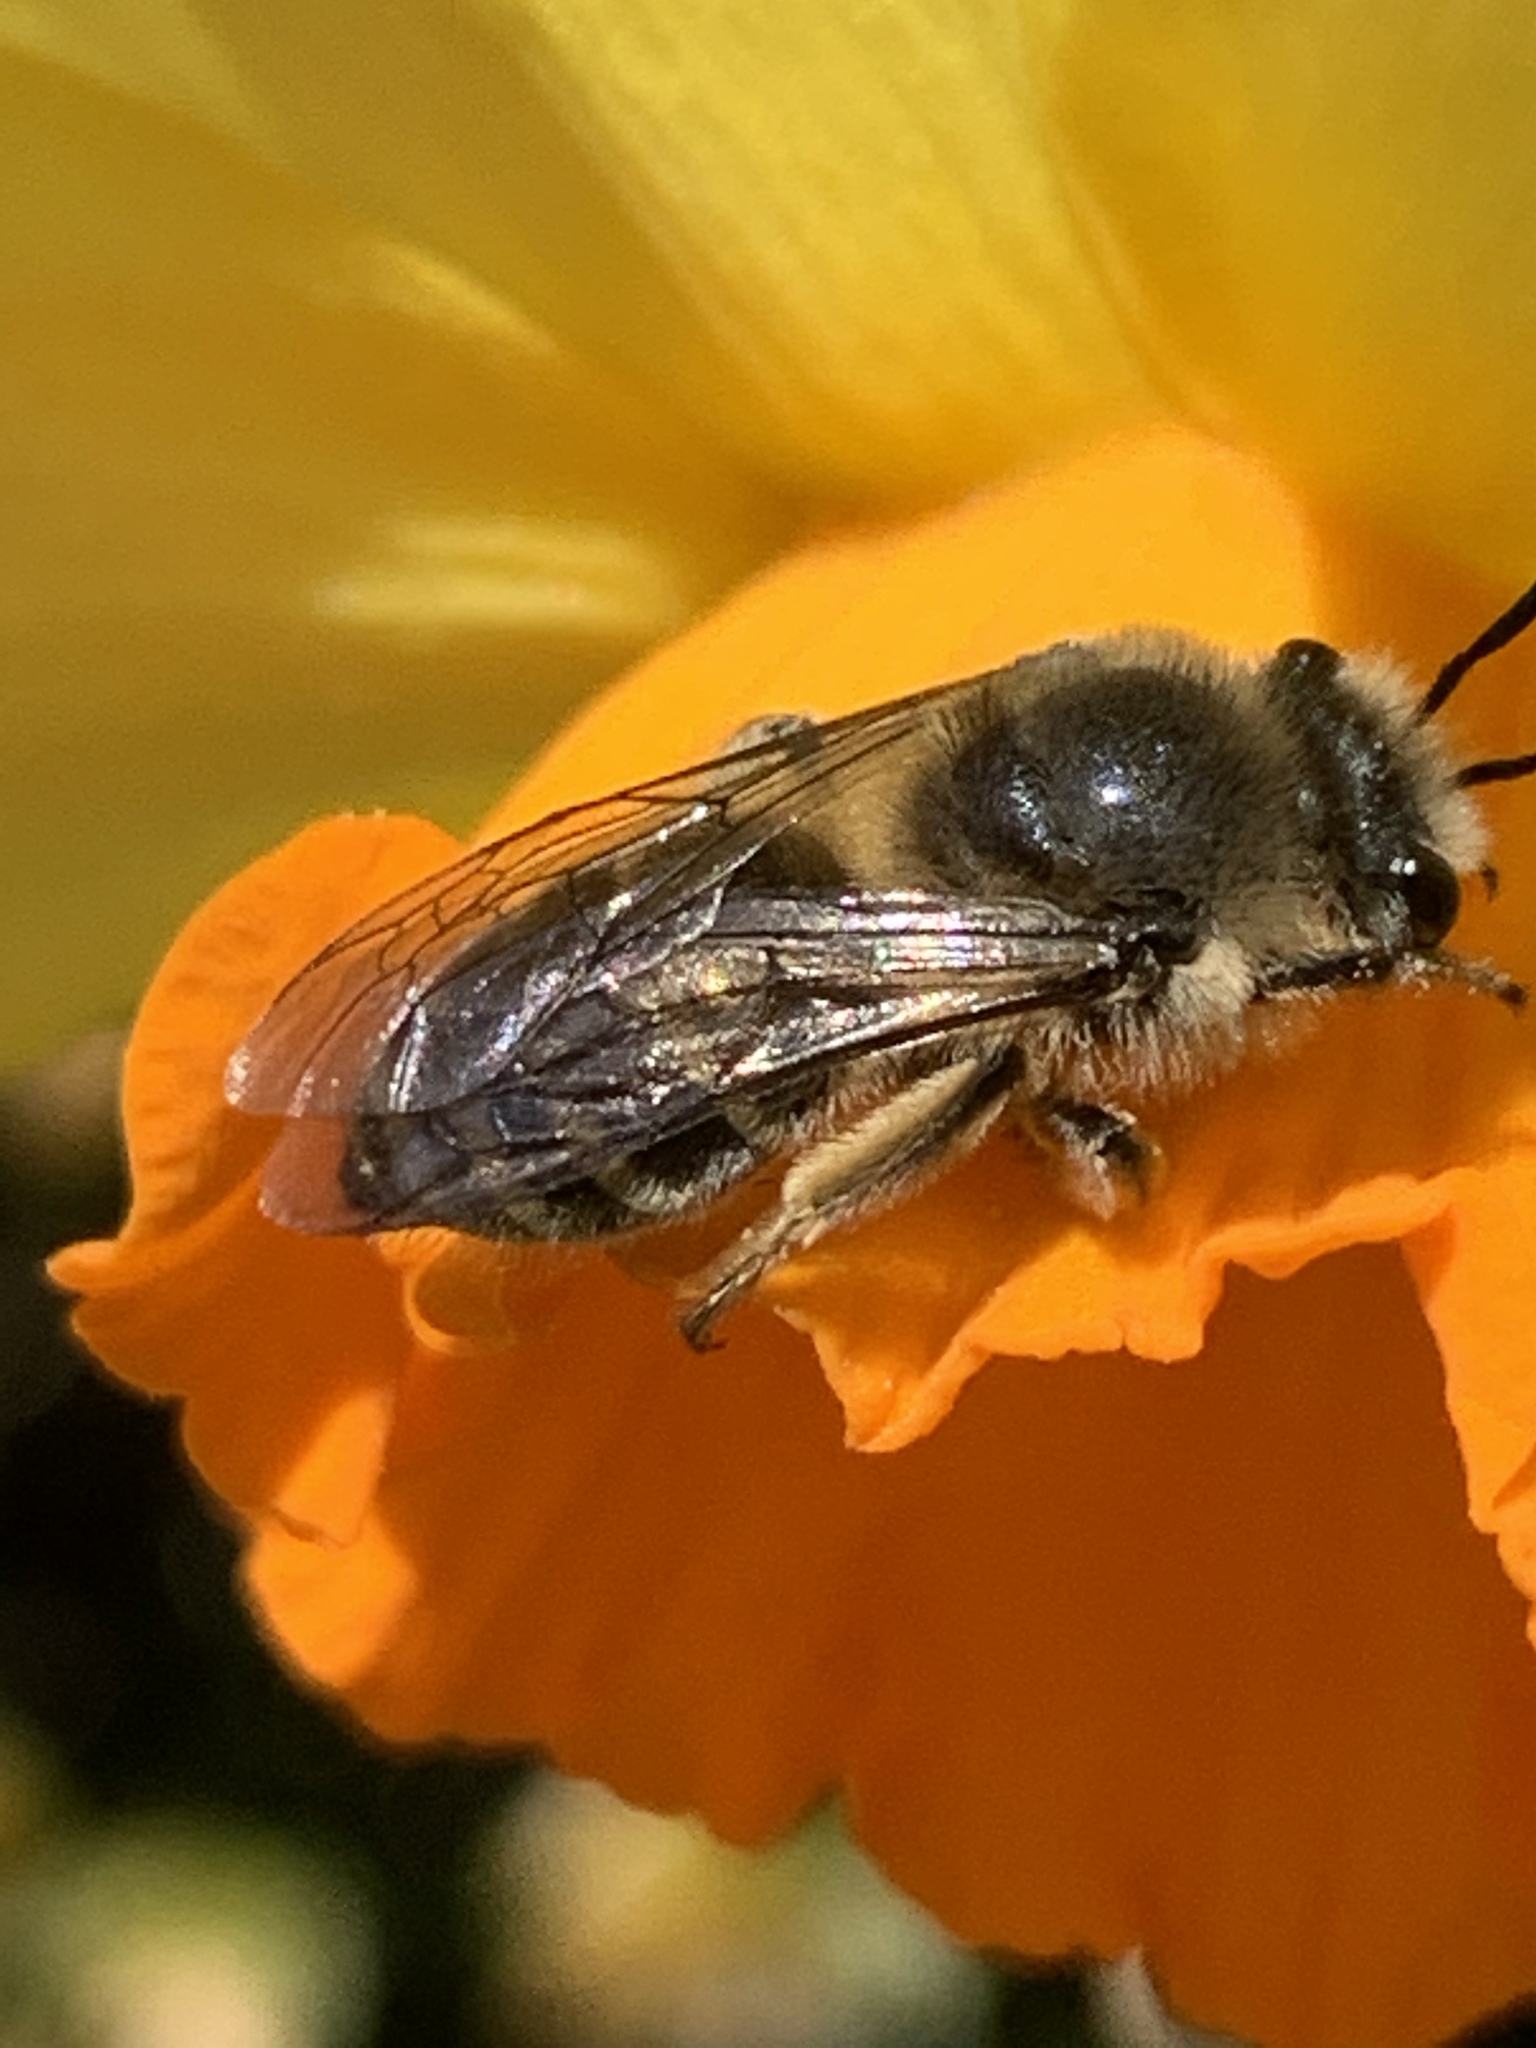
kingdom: Animalia
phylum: Arthropoda
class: Insecta
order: Hymenoptera
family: Colletidae
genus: Colletes
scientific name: Colletes inaequalis
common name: Unequal cellophane bee
